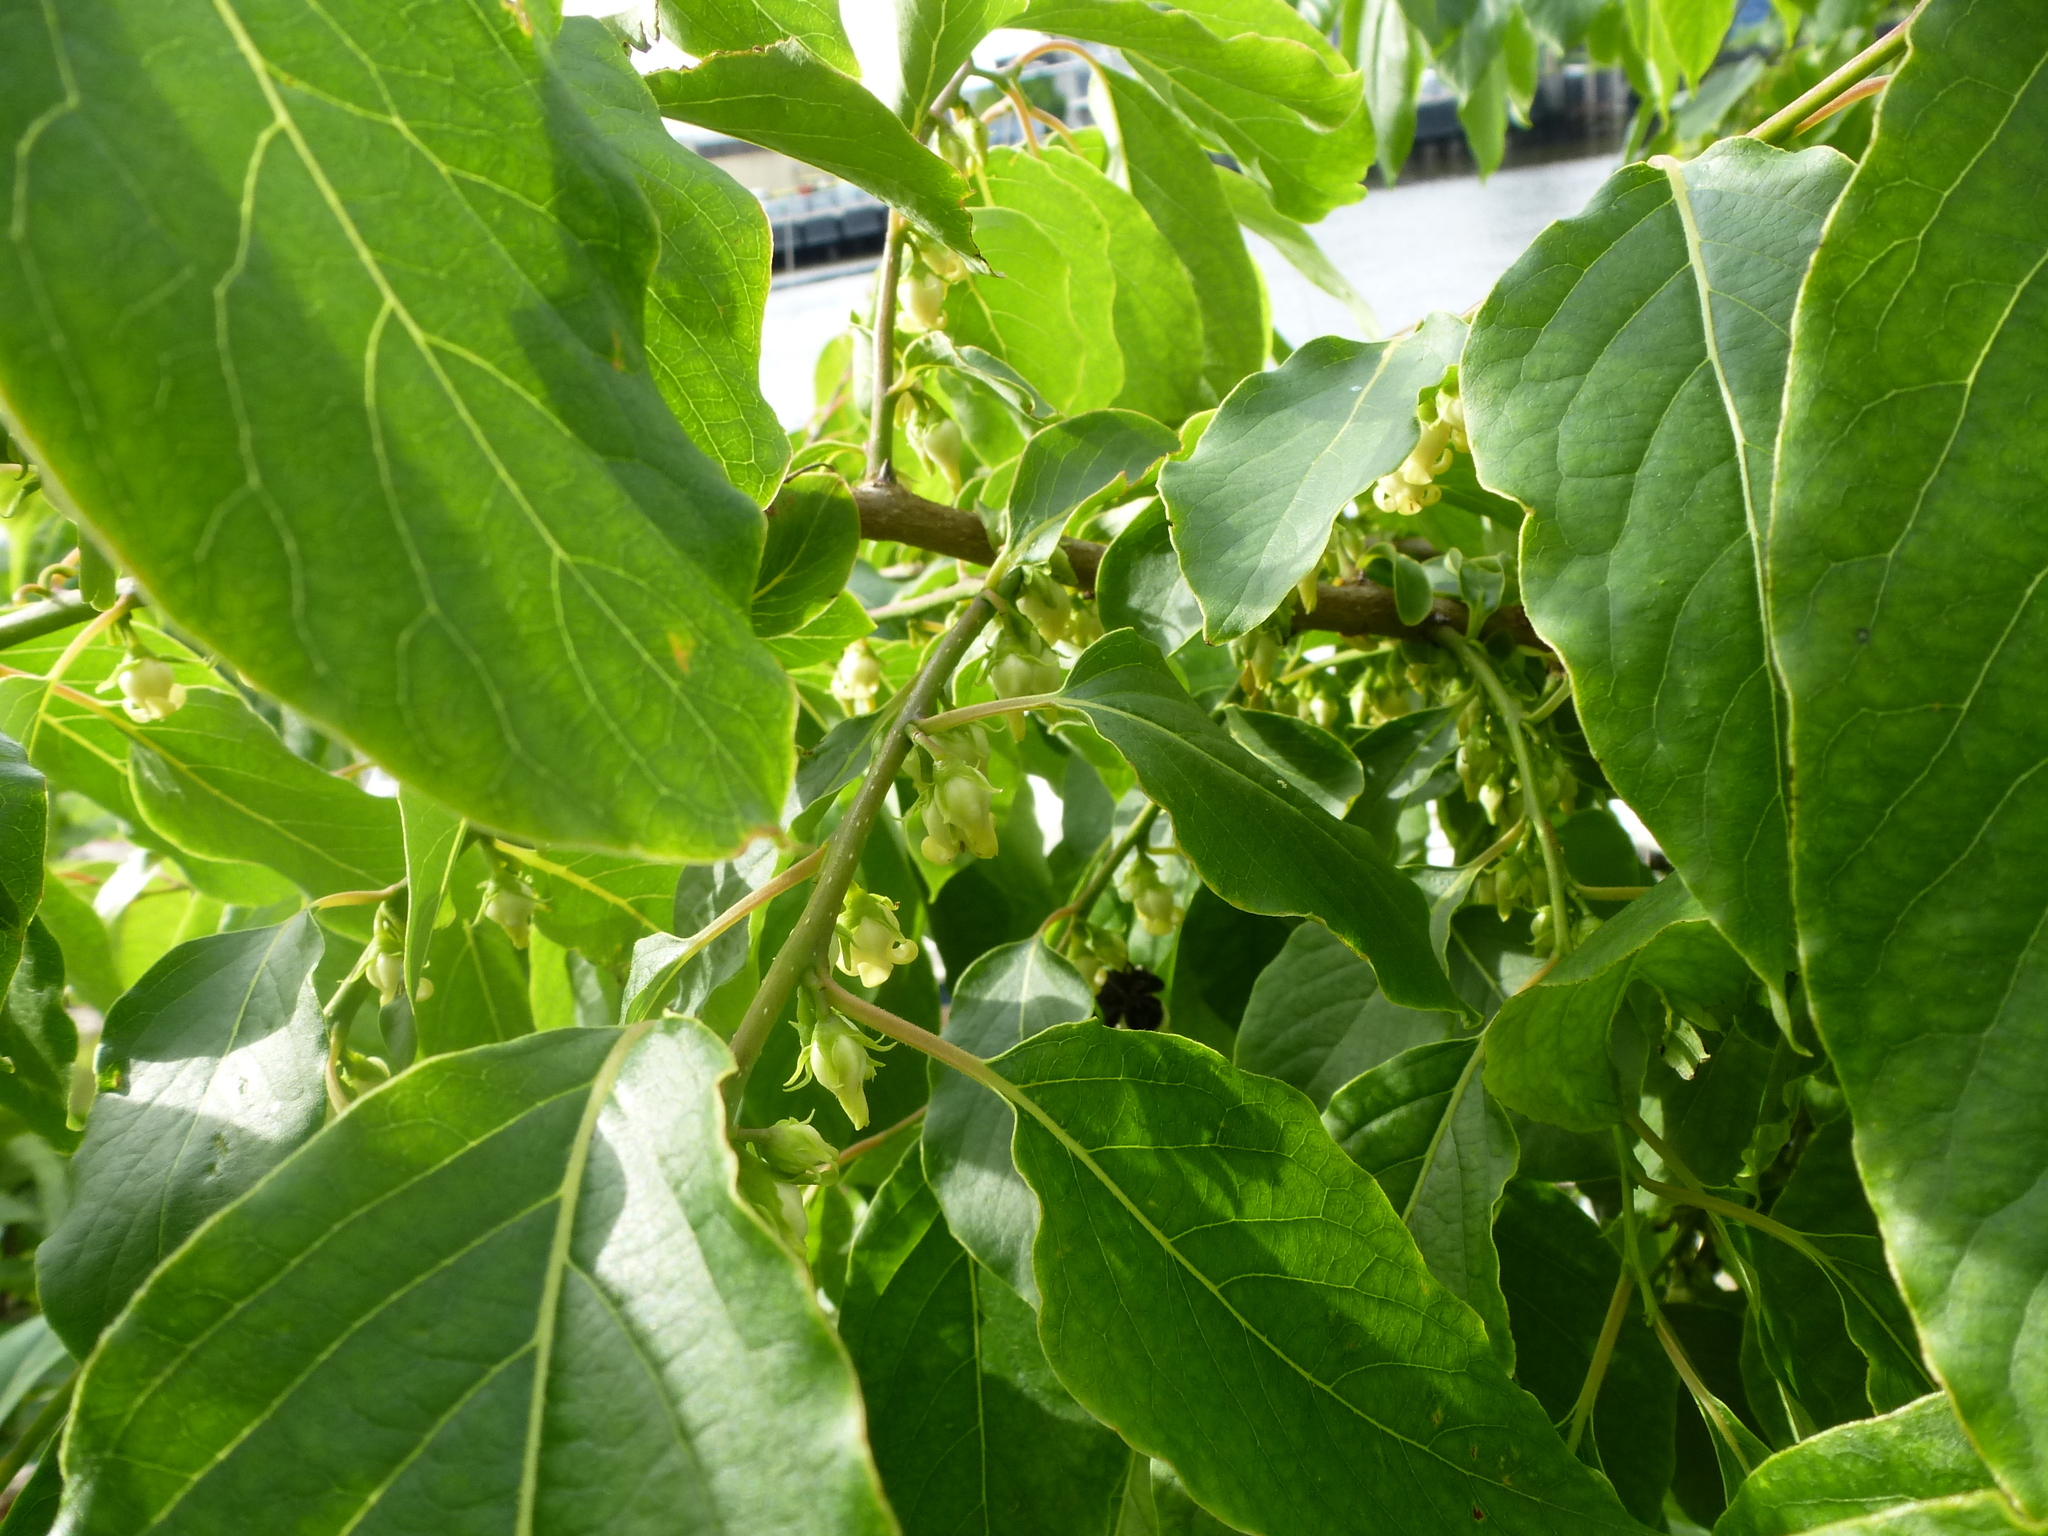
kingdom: Animalia
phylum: Arthropoda
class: Insecta
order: Hymenoptera
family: Apidae
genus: Bombus
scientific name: Bombus griseocollis
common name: Brown-belted bumble bee
